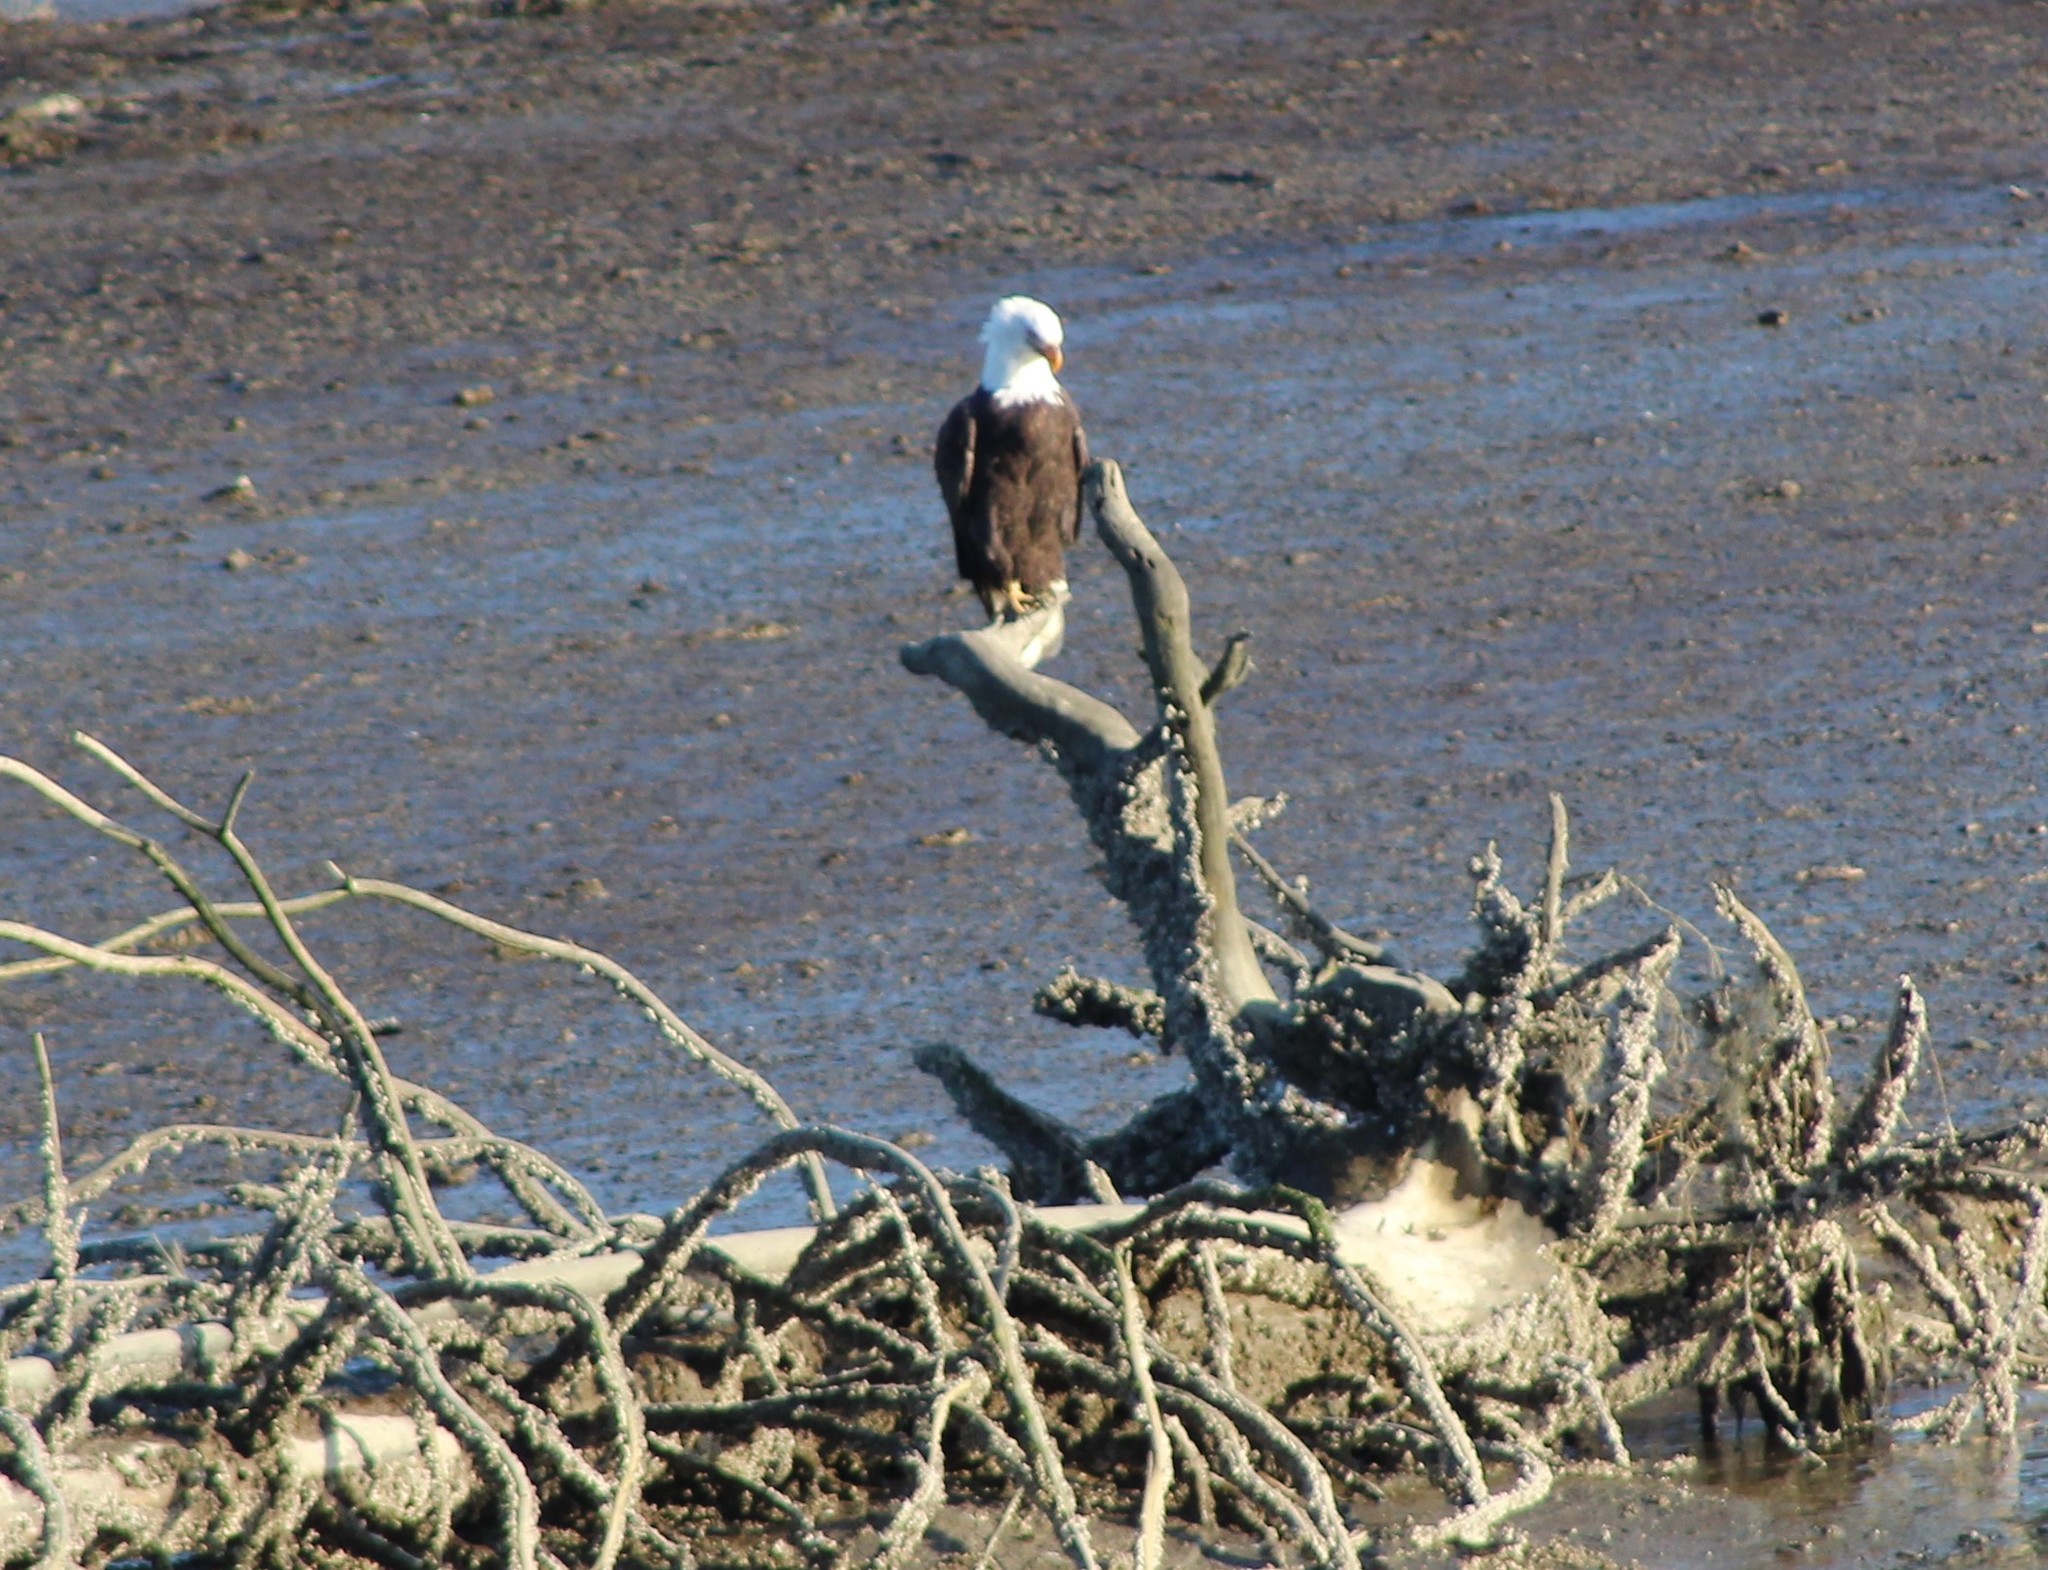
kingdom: Animalia
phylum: Chordata
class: Aves
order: Accipitriformes
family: Accipitridae
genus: Haliaeetus
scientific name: Haliaeetus leucocephalus
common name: Bald eagle
